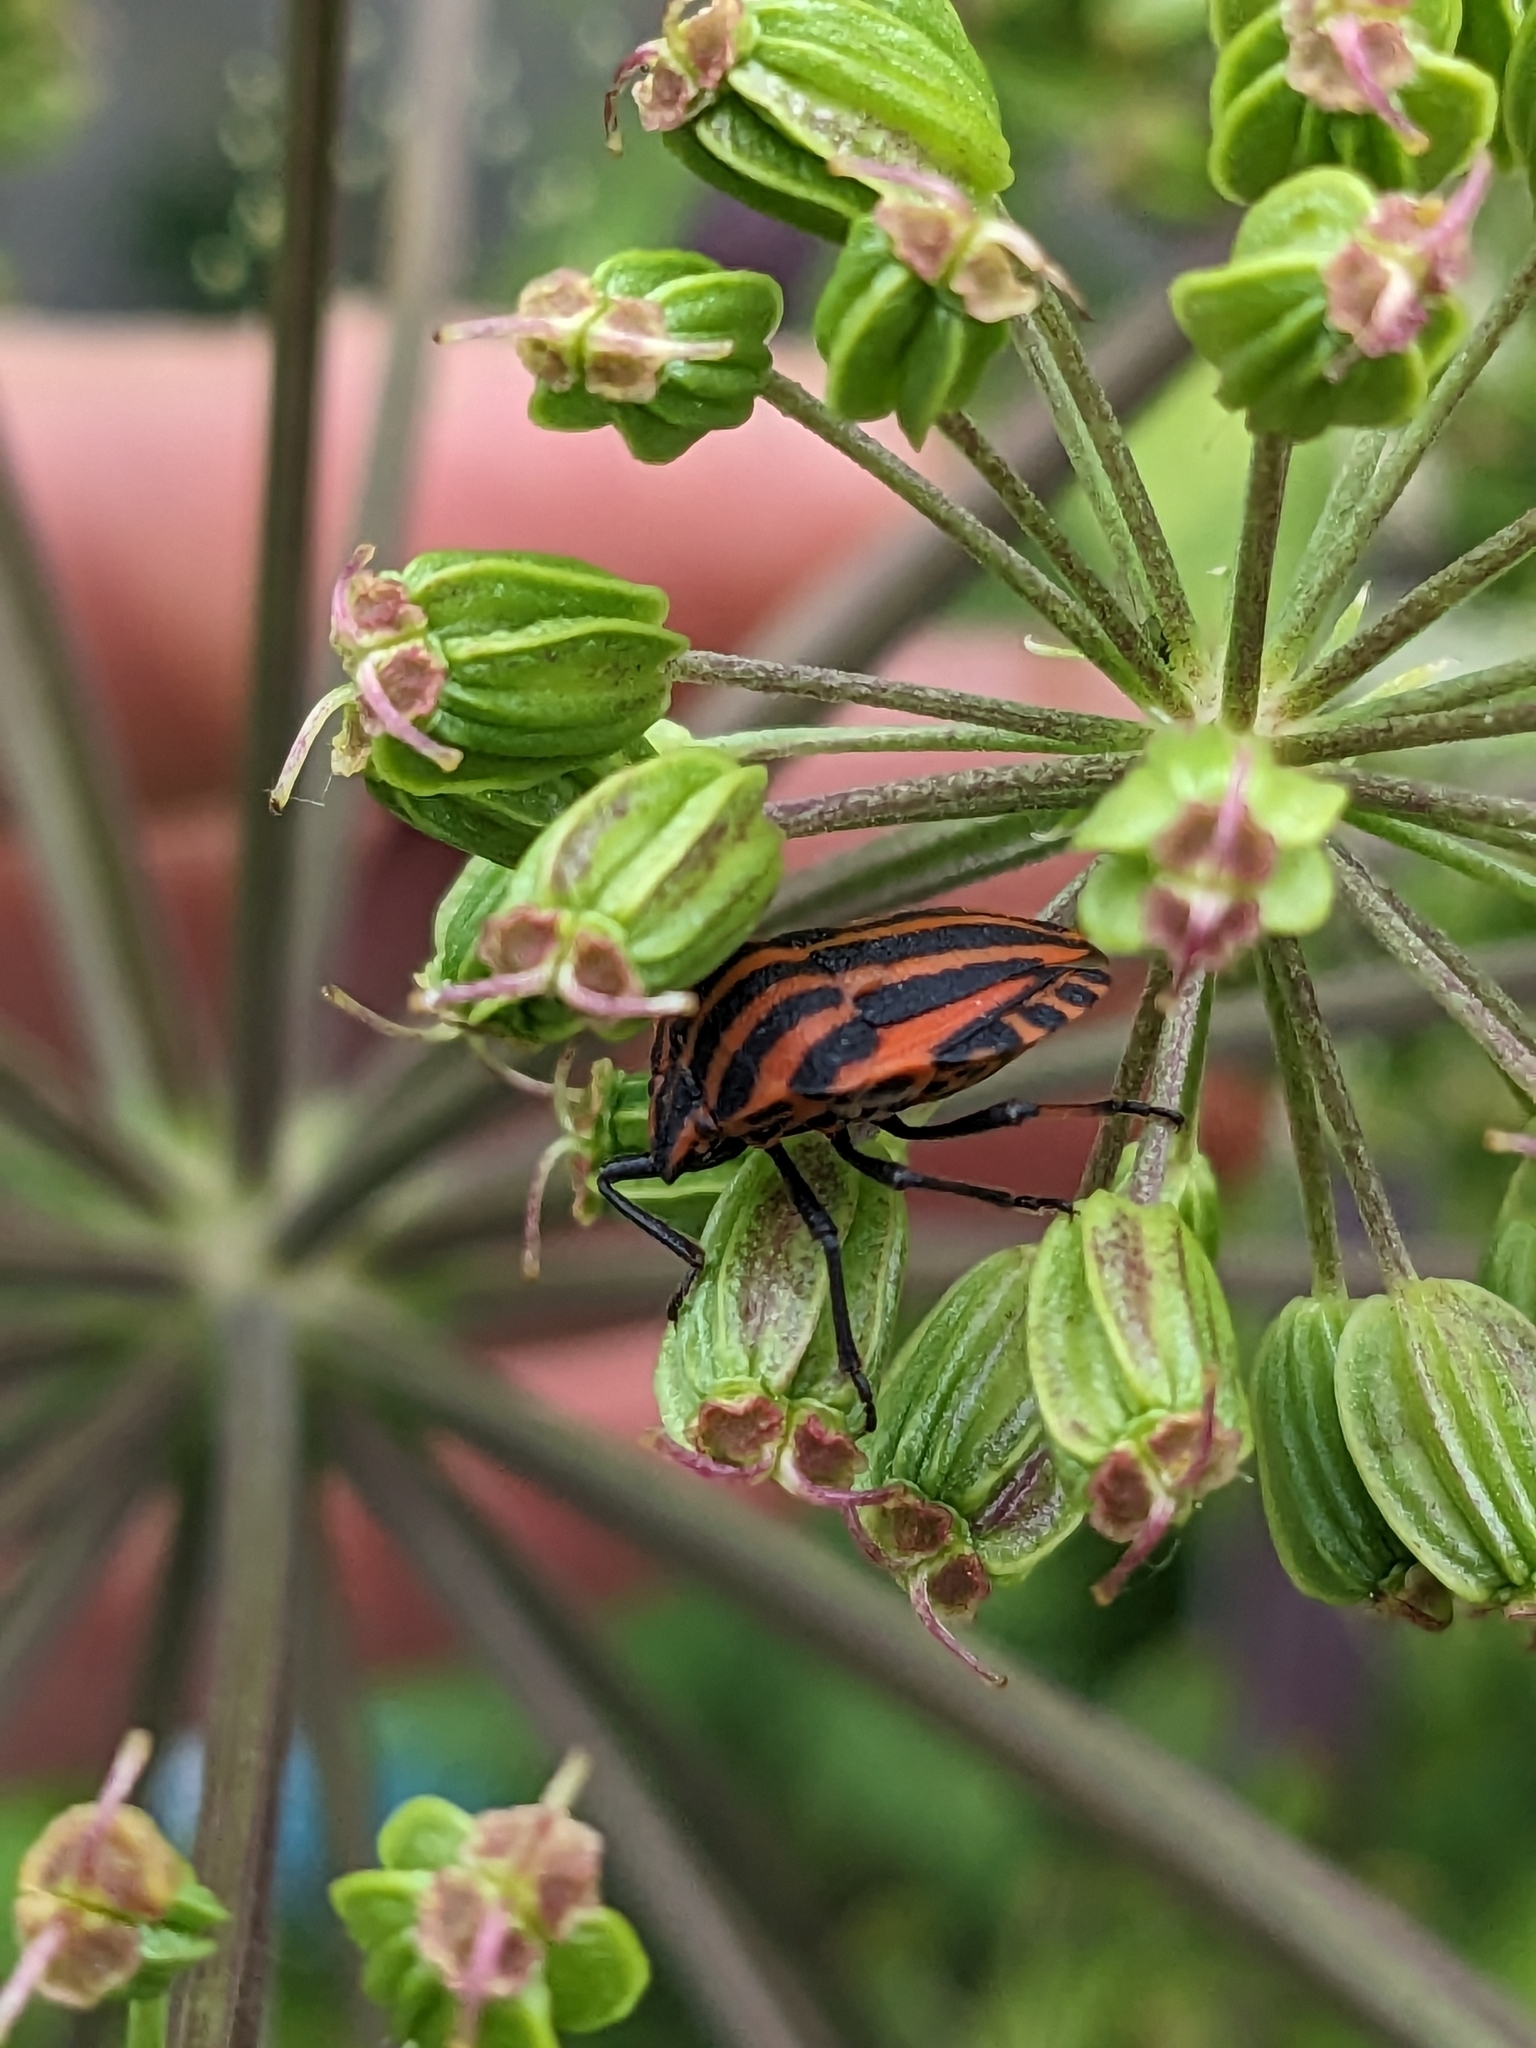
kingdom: Animalia
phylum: Arthropoda
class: Insecta
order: Hemiptera
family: Pentatomidae
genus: Graphosoma
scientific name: Graphosoma italicum
